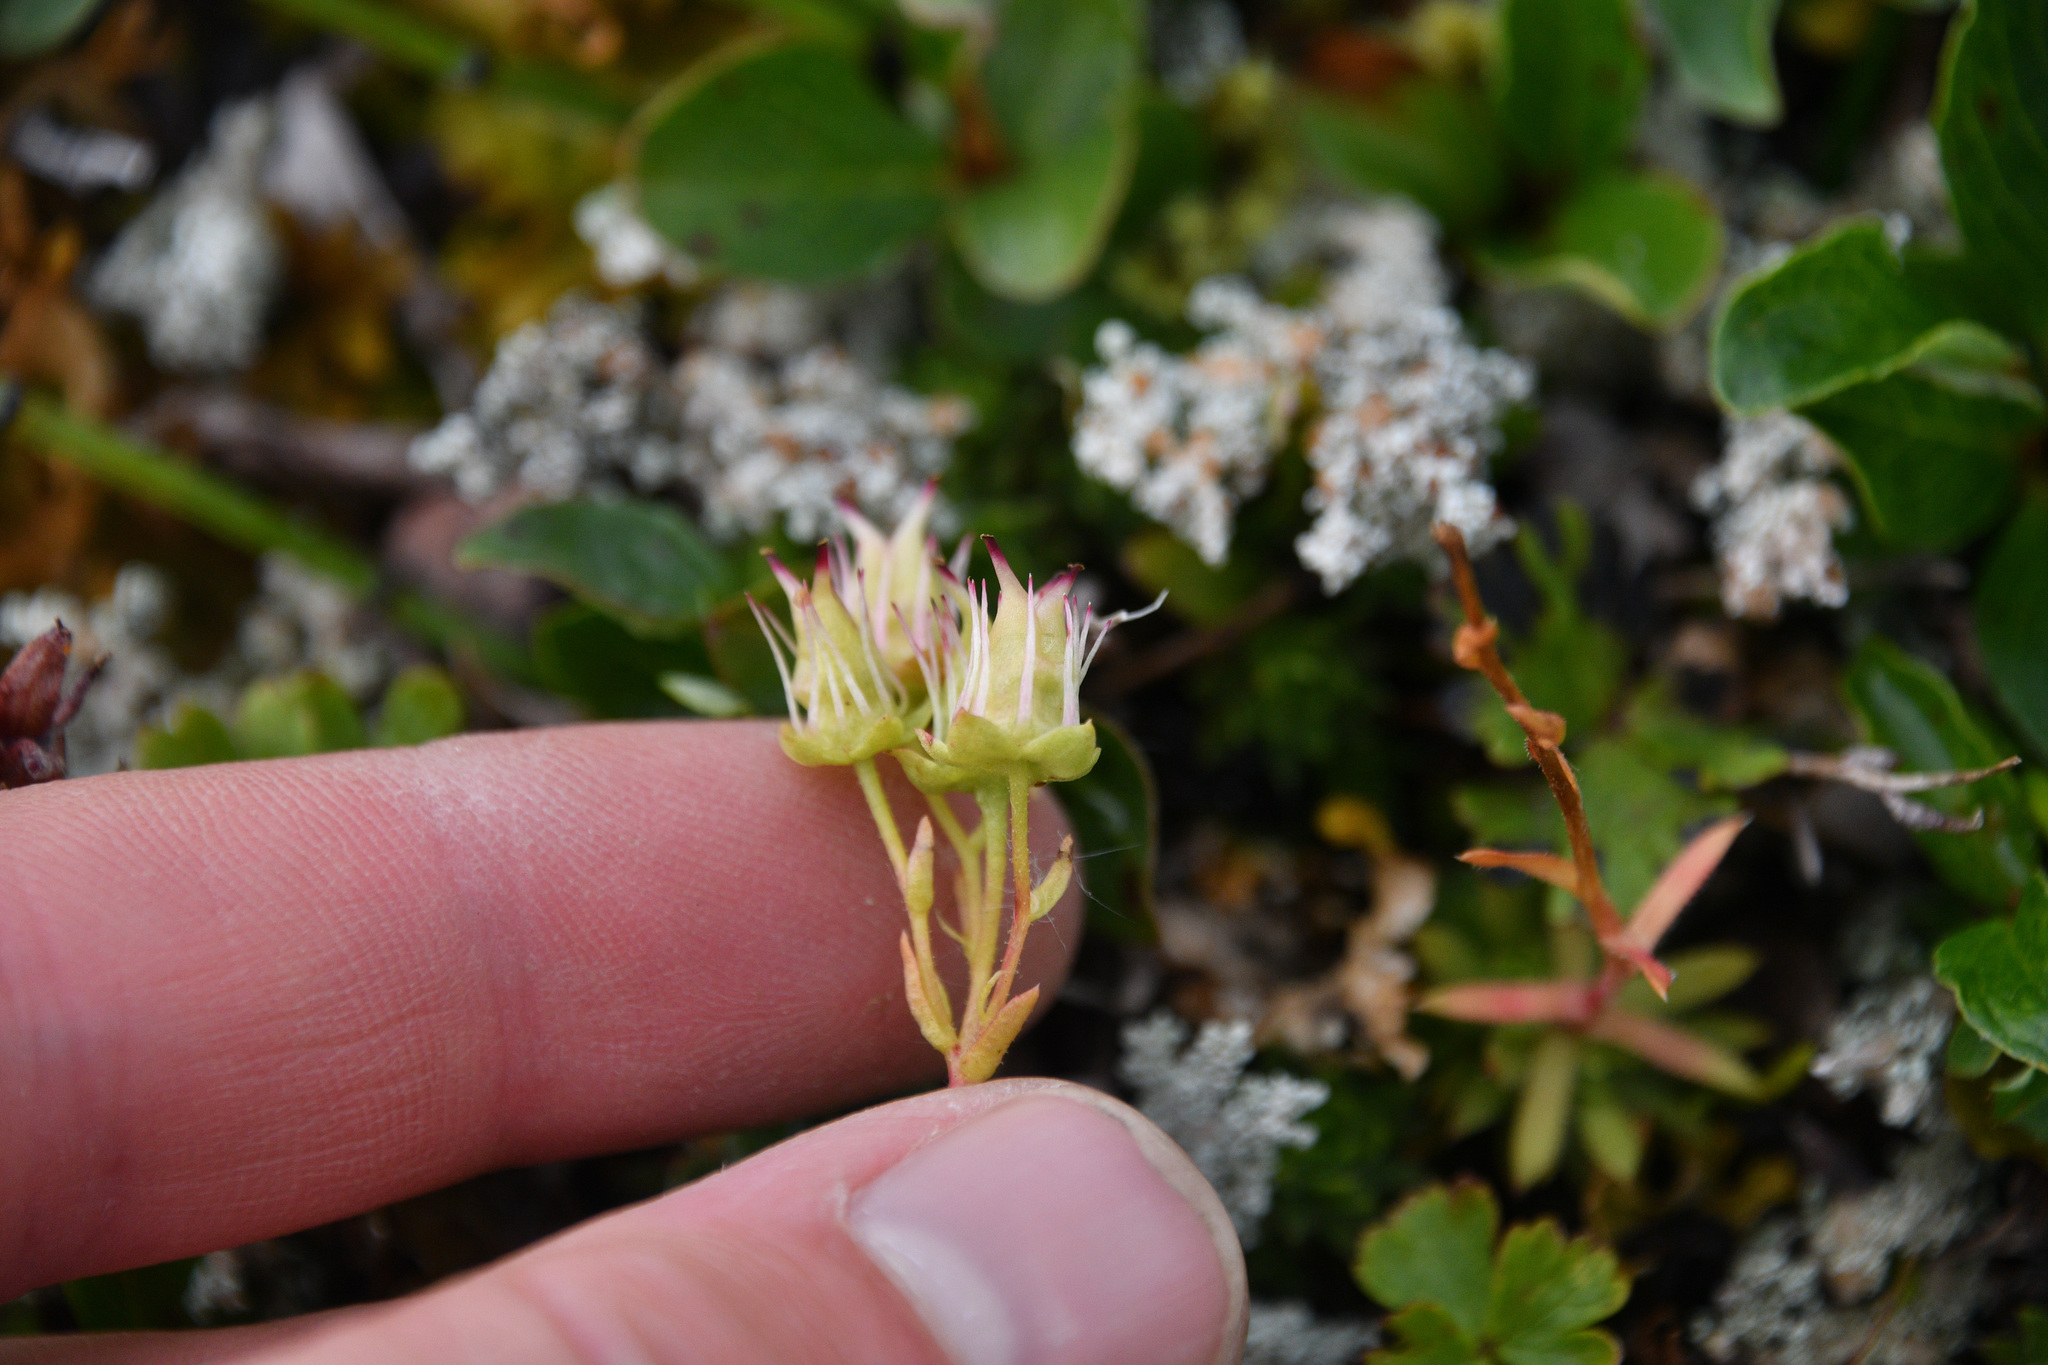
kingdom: Plantae
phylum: Tracheophyta
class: Magnoliopsida
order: Saxifragales
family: Saxifragaceae
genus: Saxifraga
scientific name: Saxifraga tricuspidata
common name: Prickly saxifrage
